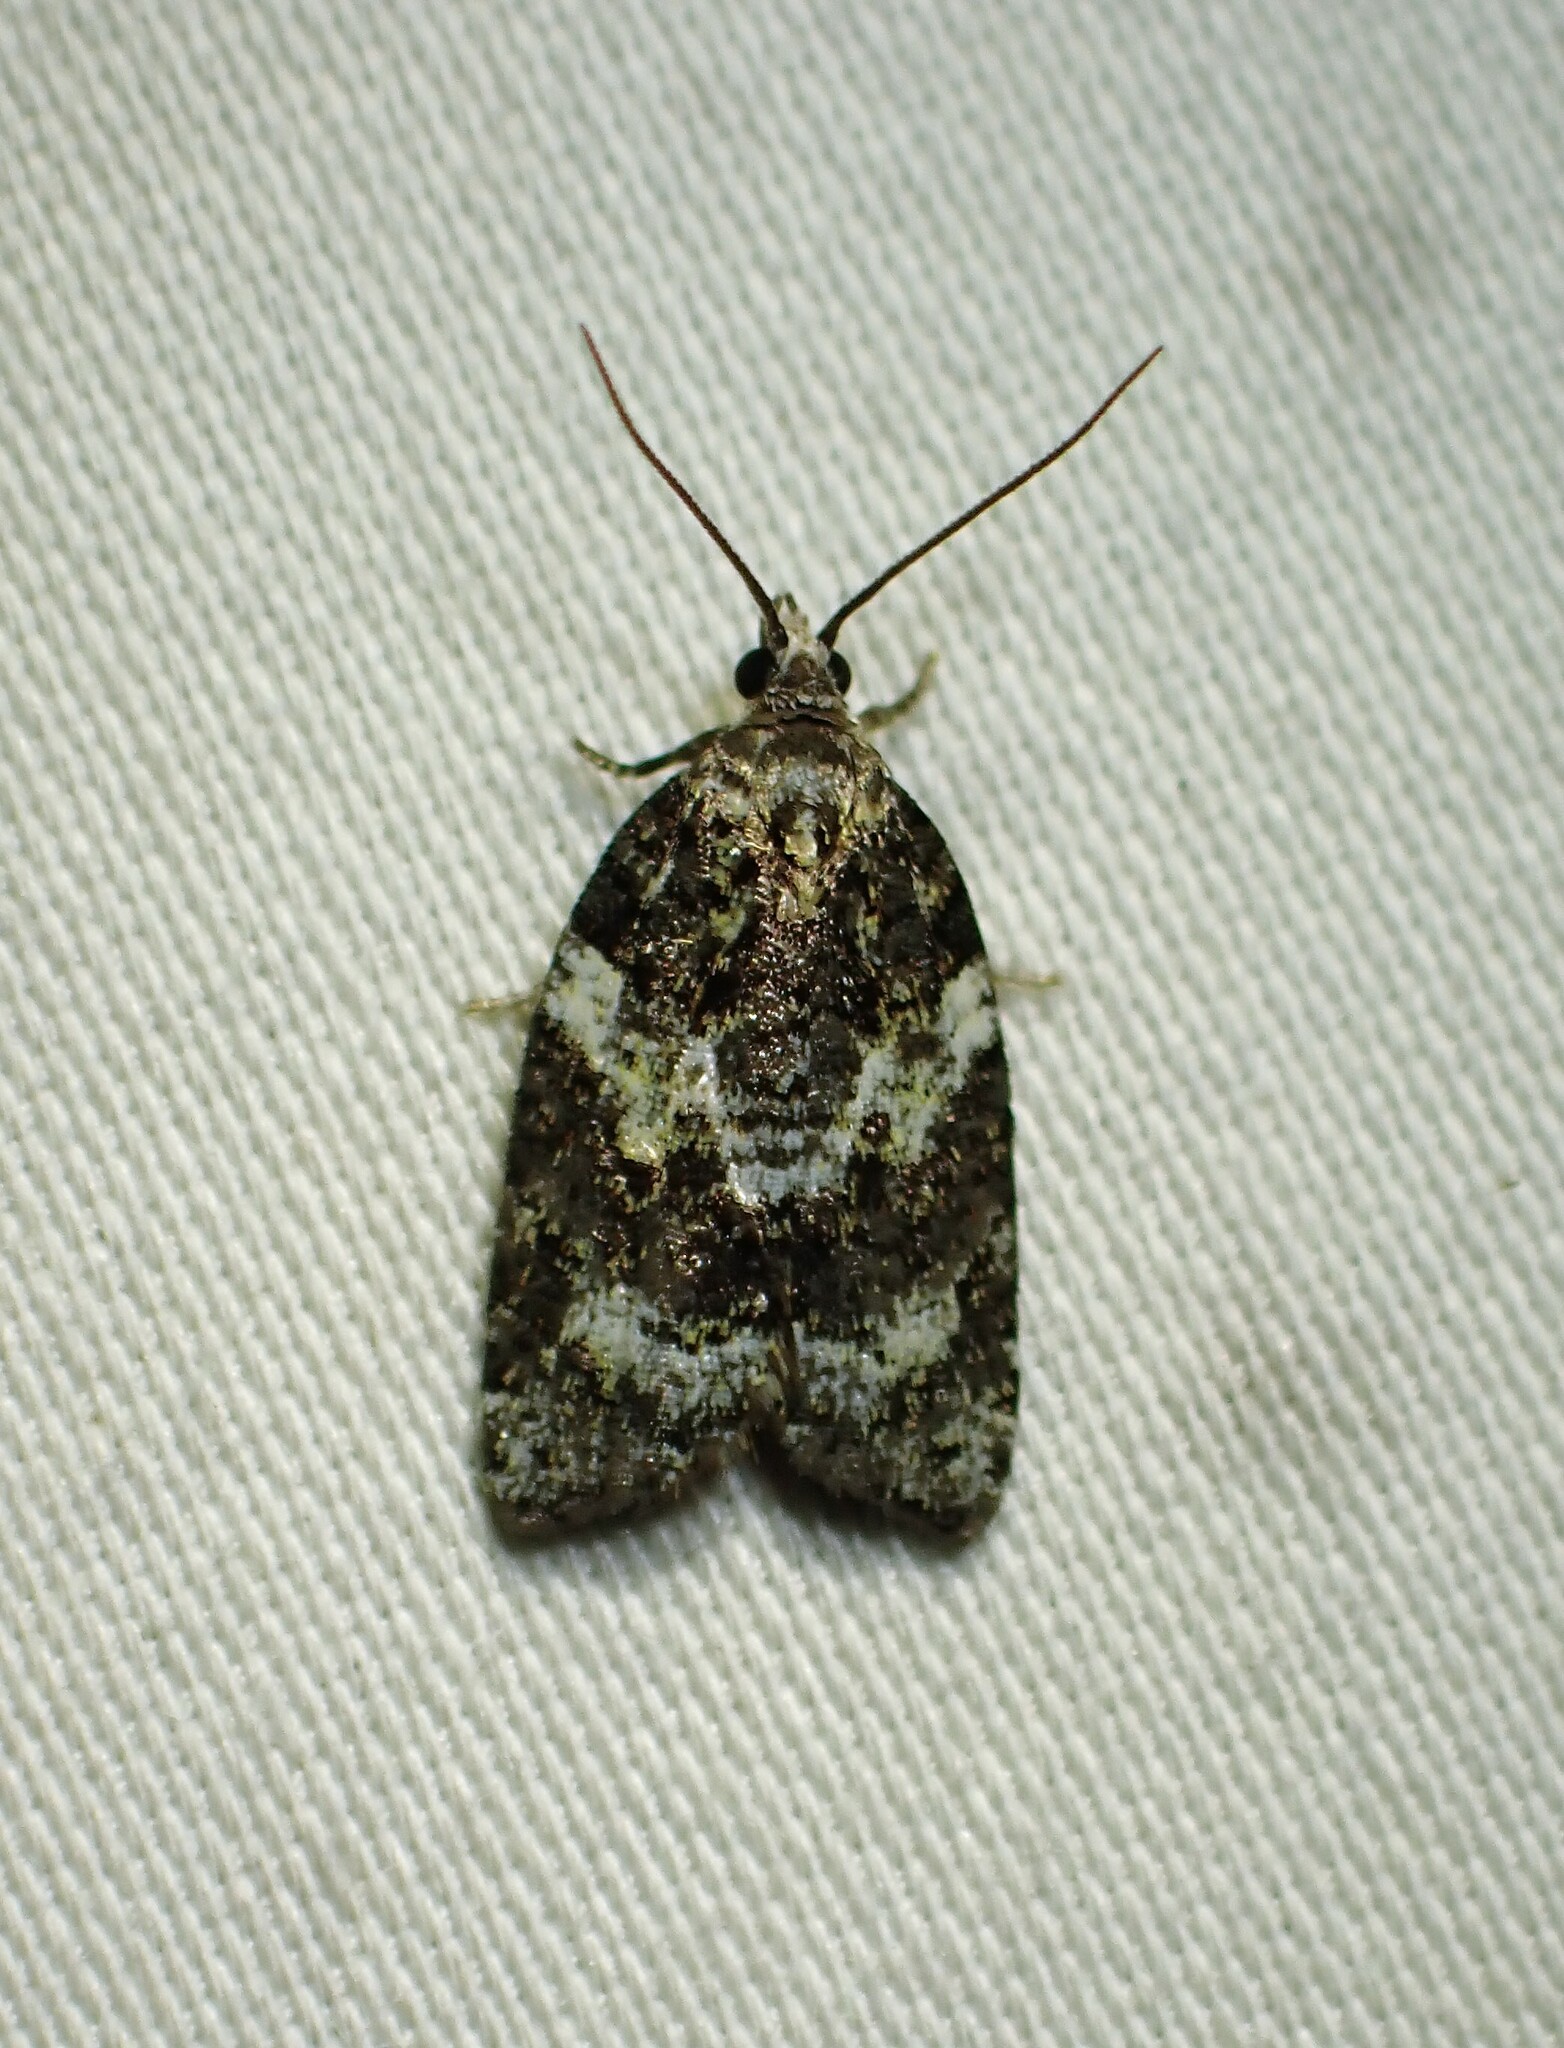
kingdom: Animalia
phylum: Arthropoda
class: Insecta
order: Lepidoptera
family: Tortricidae
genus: Acleris
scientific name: Acleris variana
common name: Eastern black-headed budworm moth
